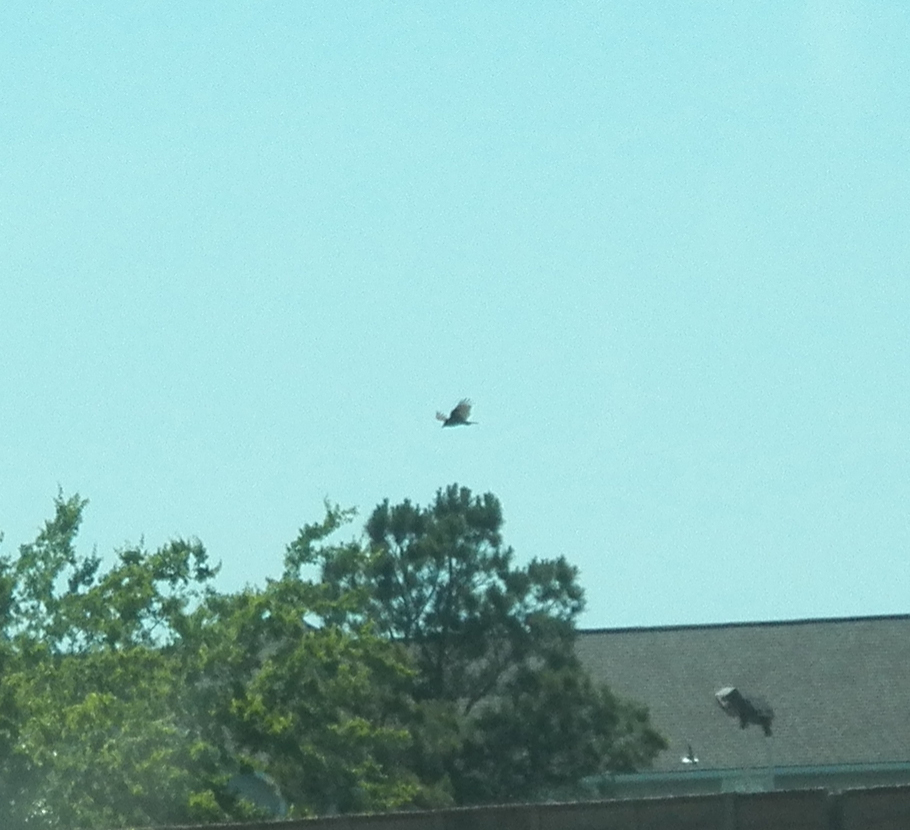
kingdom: Animalia
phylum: Chordata
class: Aves
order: Accipitriformes
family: Cathartidae
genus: Cathartes
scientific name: Cathartes aura
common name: Turkey vulture
